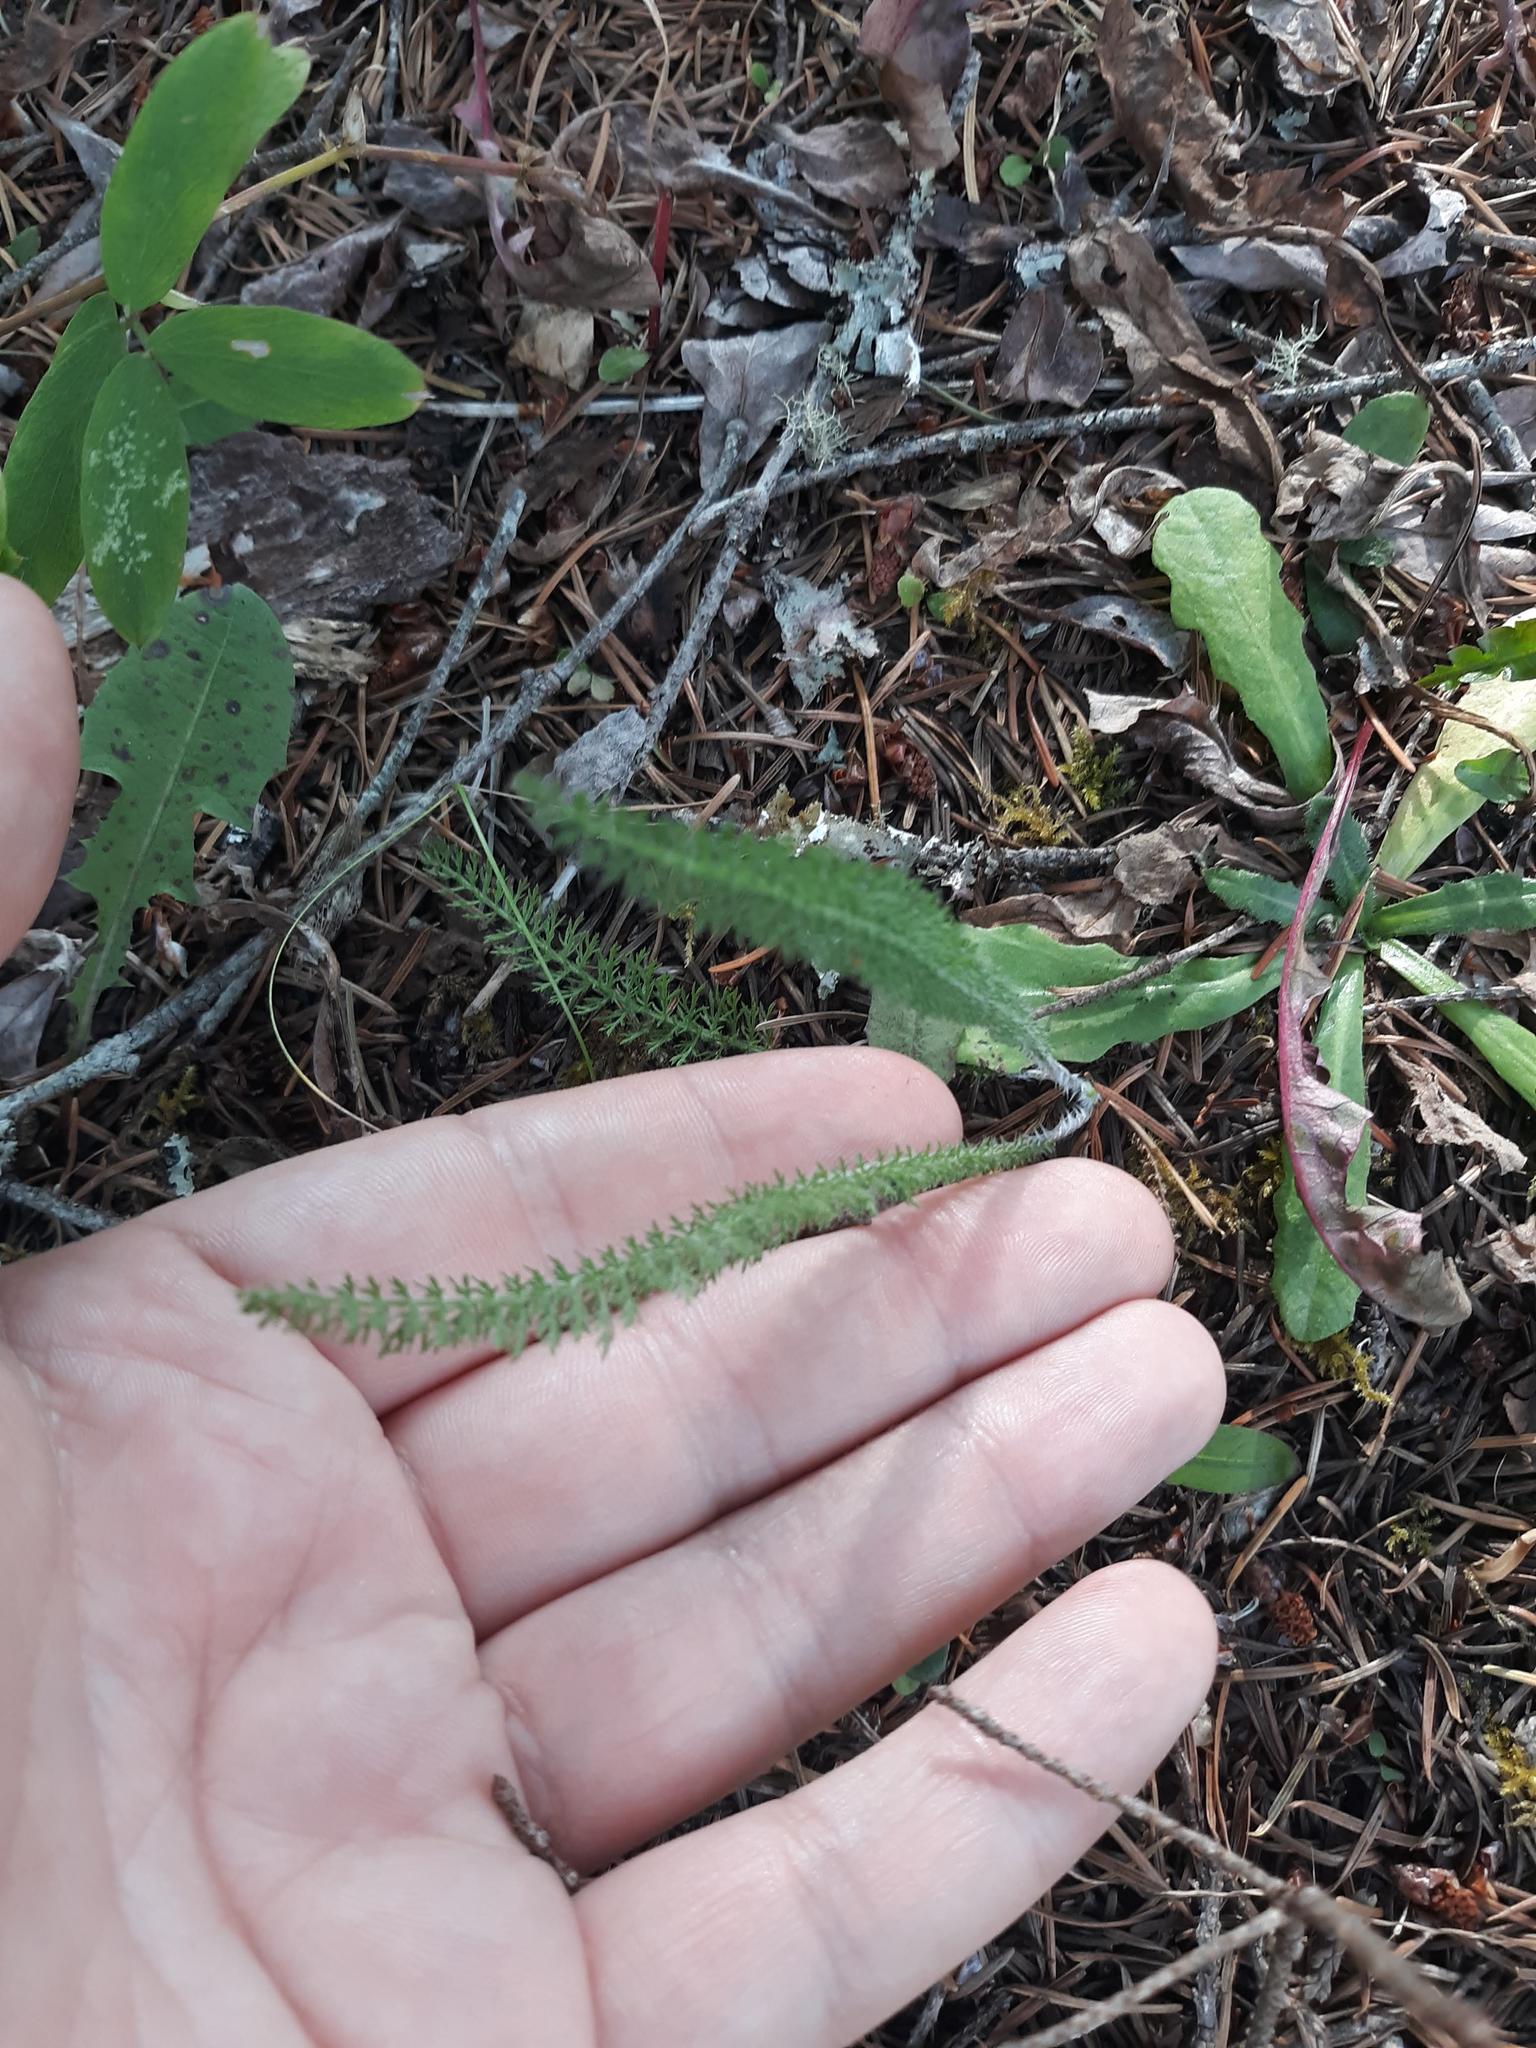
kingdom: Plantae
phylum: Tracheophyta
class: Magnoliopsida
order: Asterales
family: Asteraceae
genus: Achillea
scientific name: Achillea millefolium
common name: Yarrow
